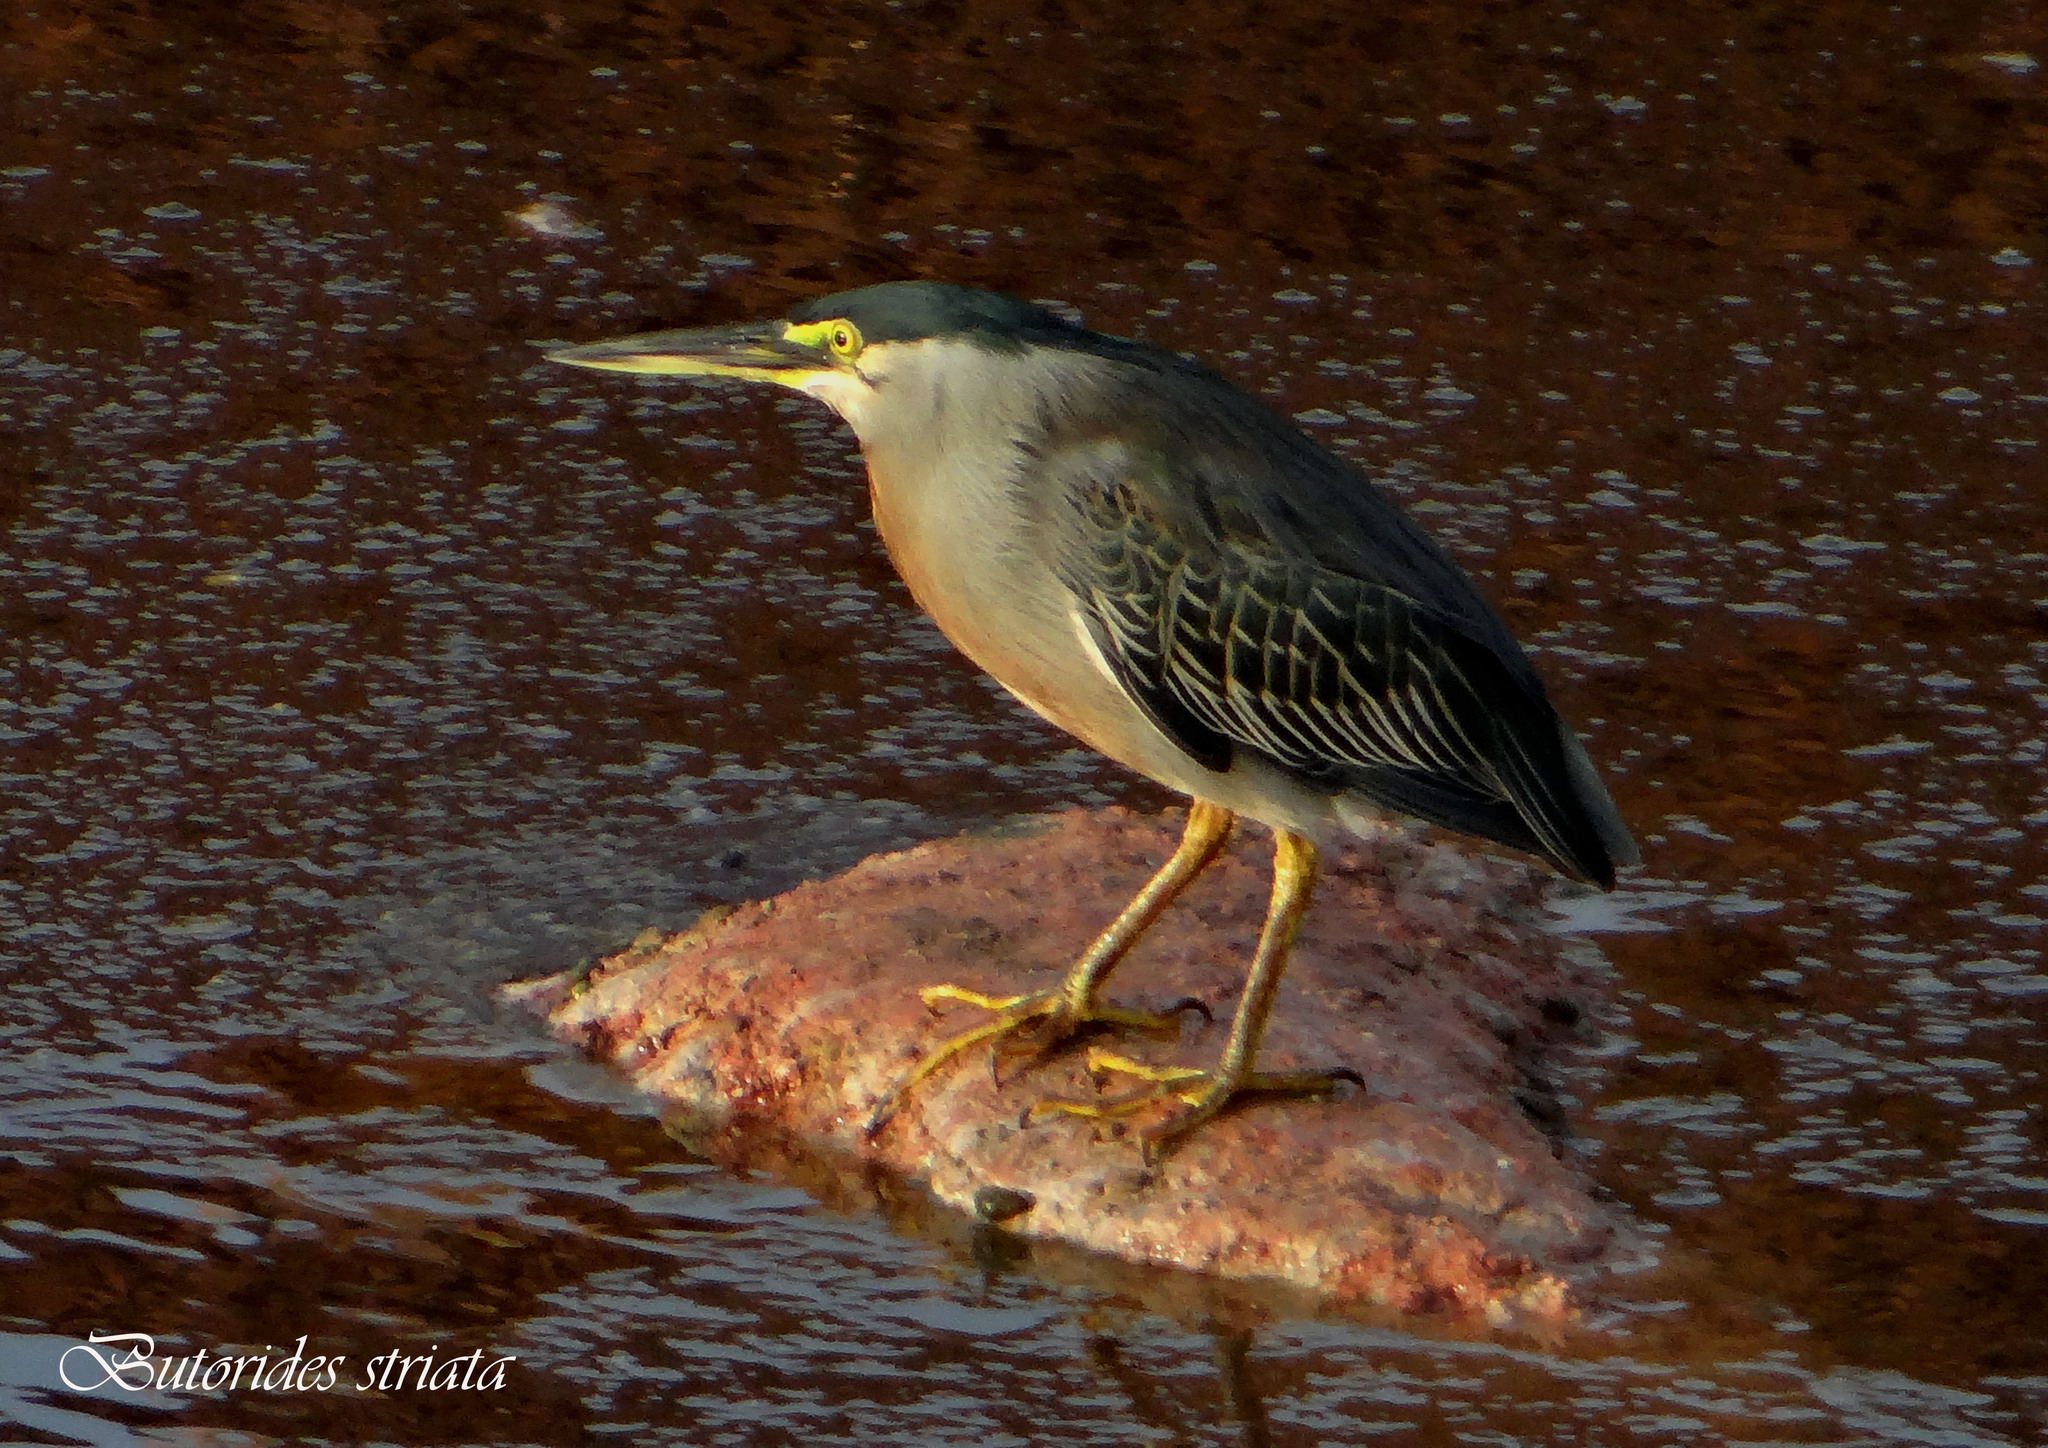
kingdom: Animalia
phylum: Chordata
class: Aves
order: Pelecaniformes
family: Ardeidae
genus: Butorides
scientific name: Butorides striata
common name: Striated heron
